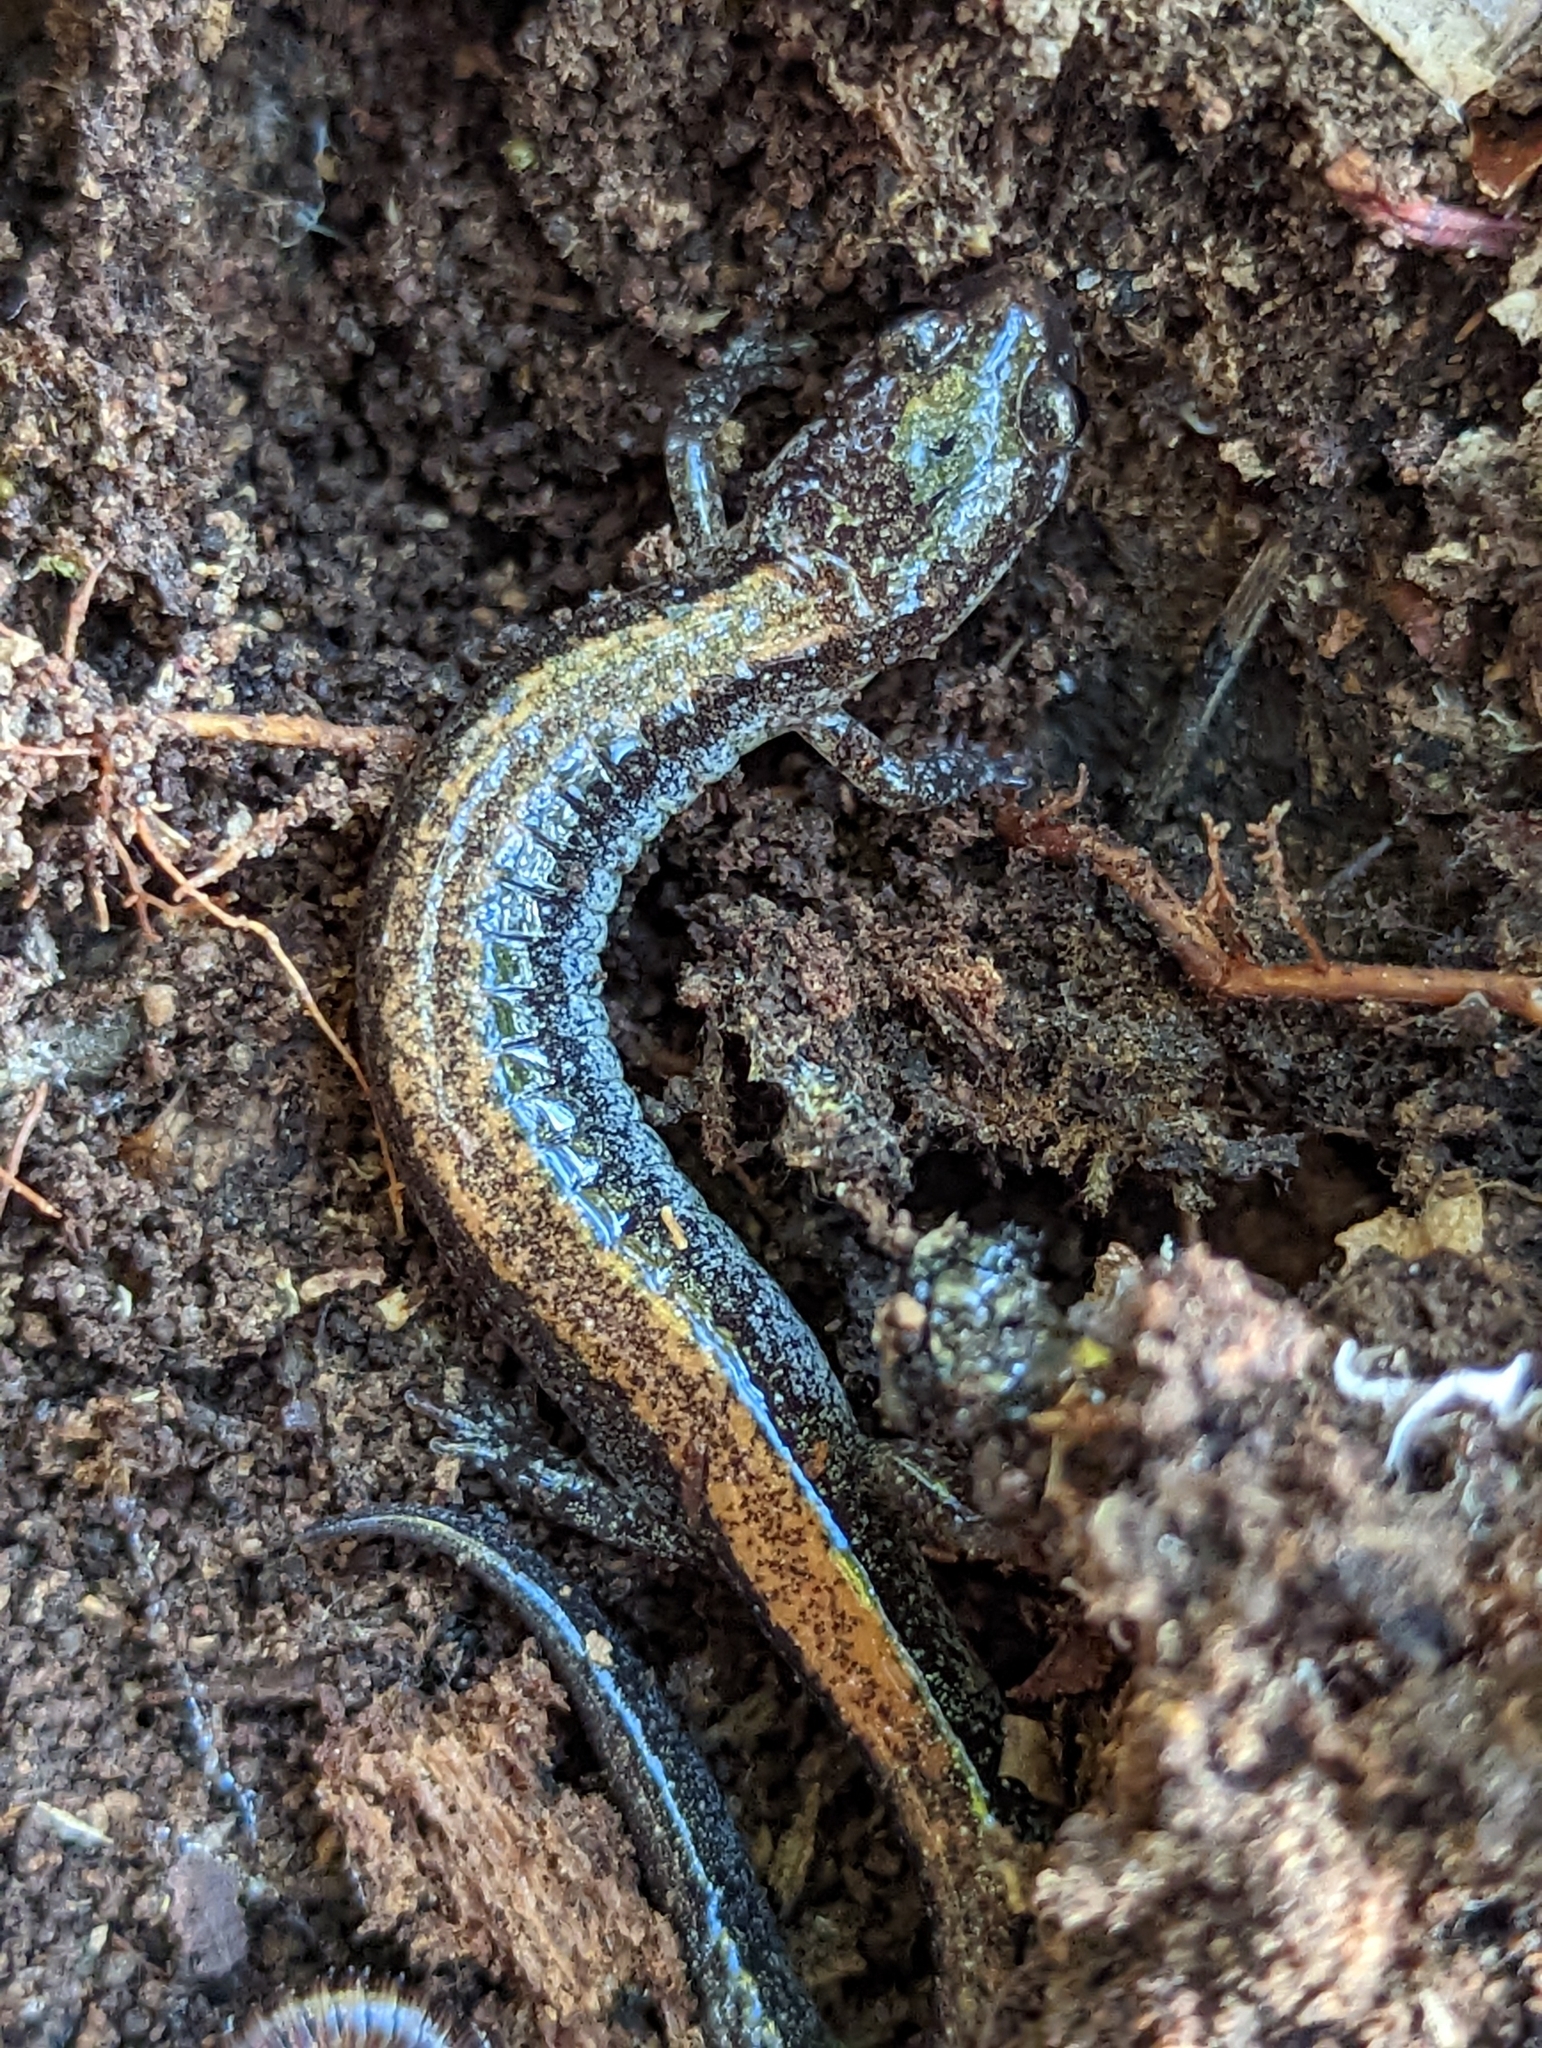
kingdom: Animalia
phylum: Chordata
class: Amphibia
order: Caudata
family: Plethodontidae
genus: Plethodon
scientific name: Plethodon cinereus
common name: Redback salamander
